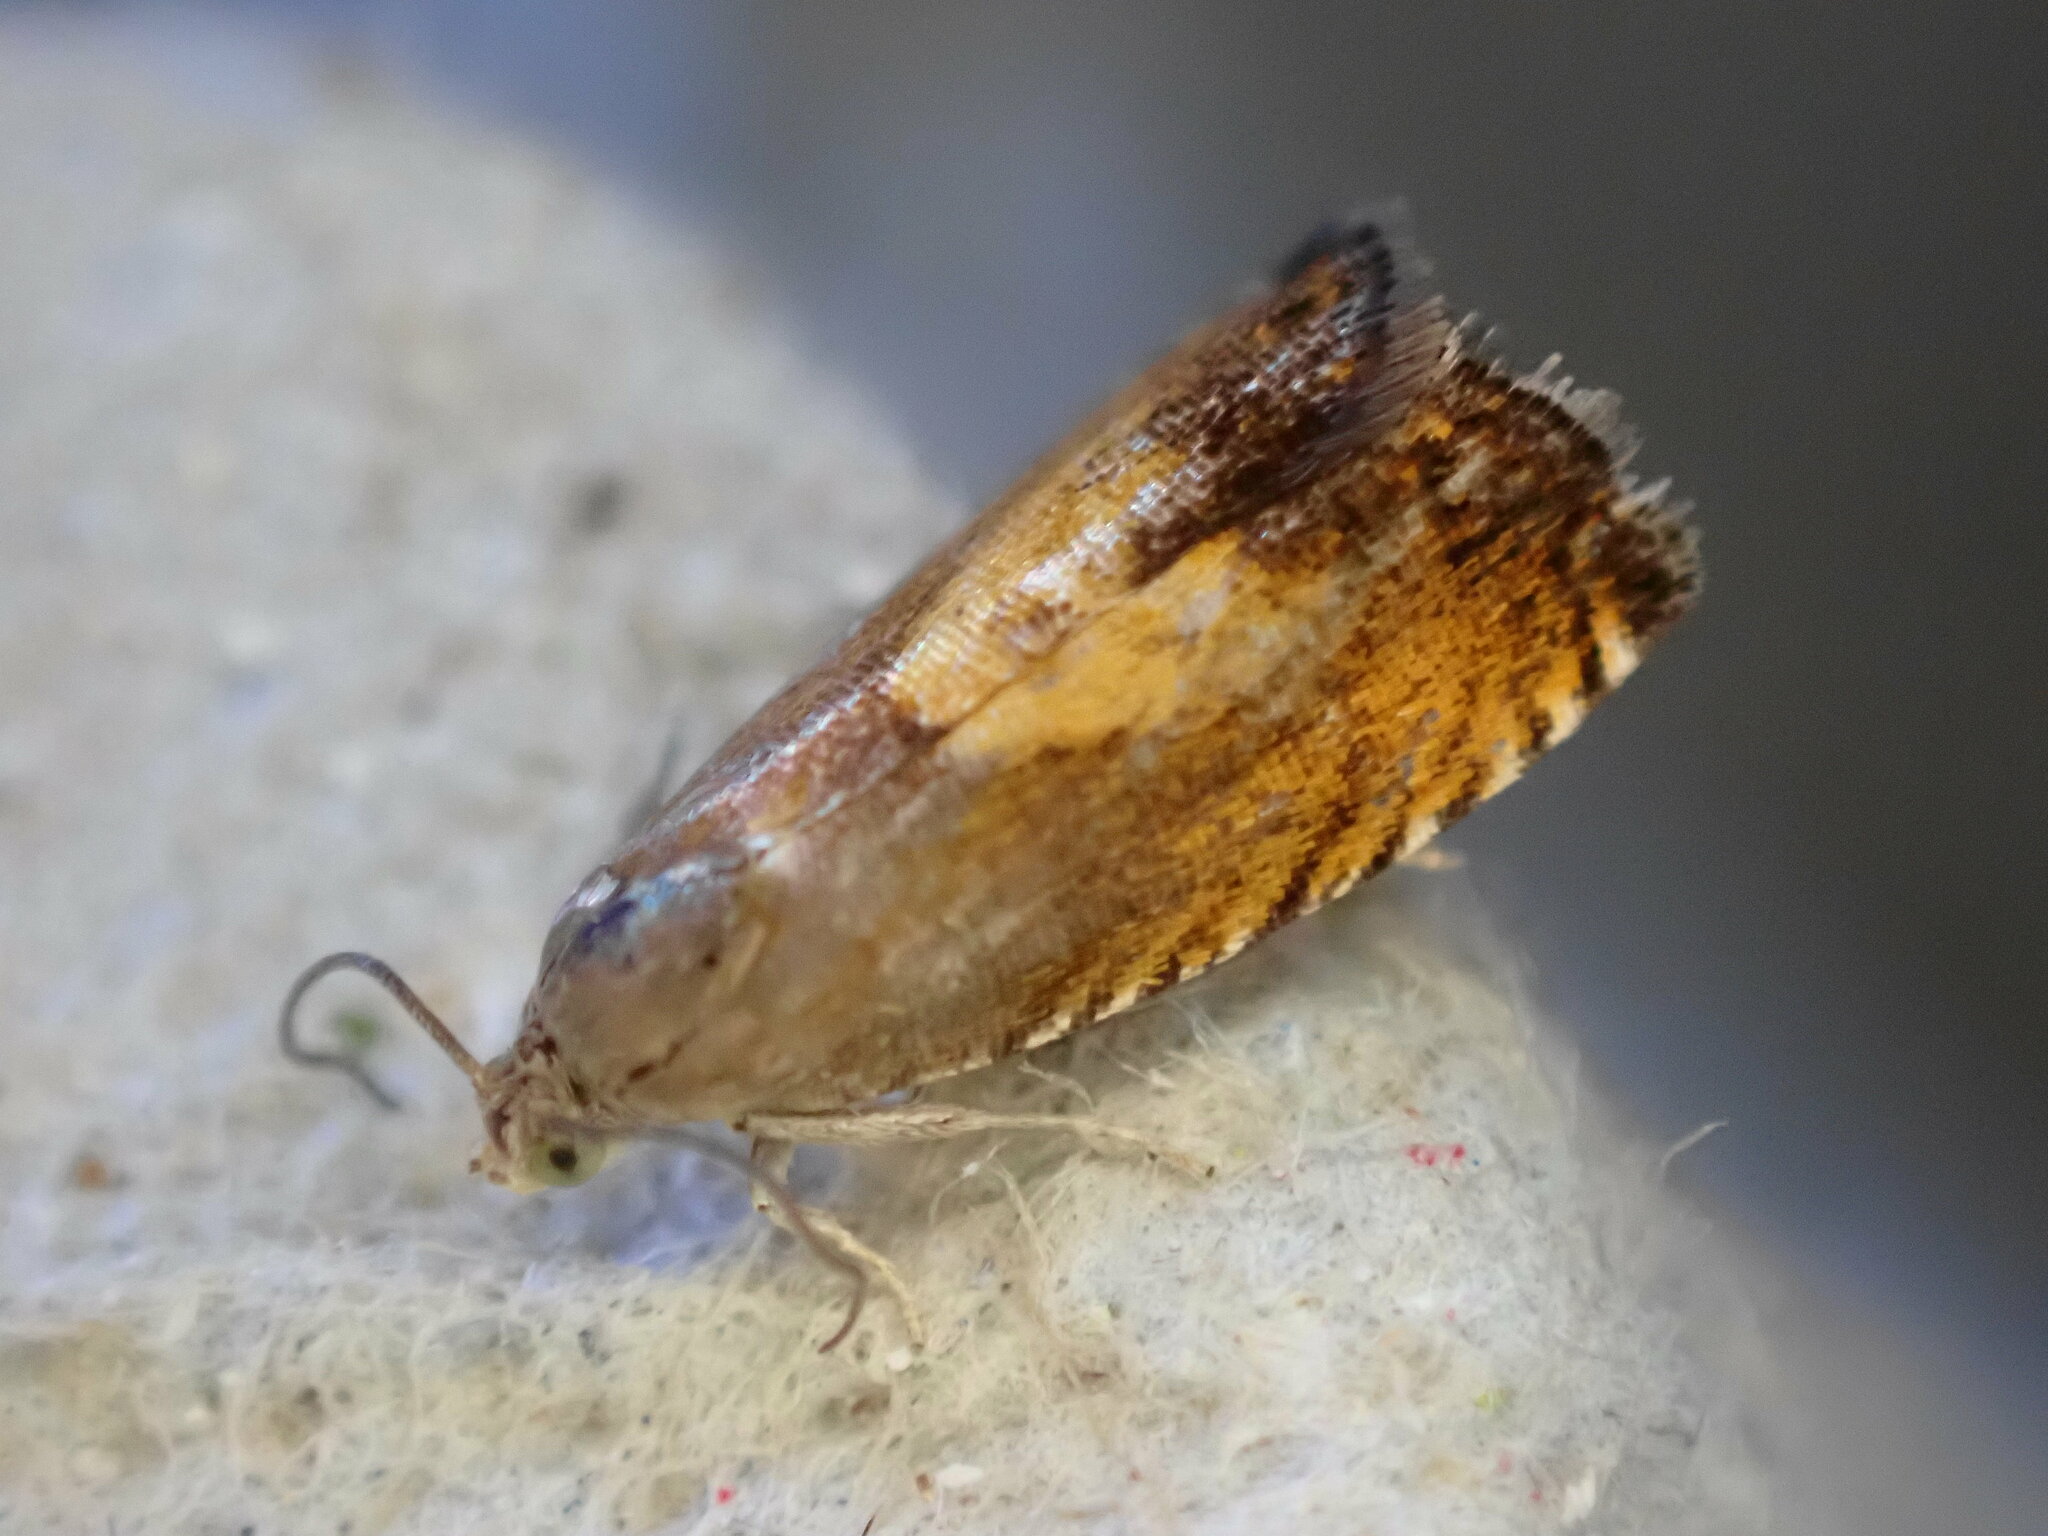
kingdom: Animalia
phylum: Arthropoda
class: Insecta
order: Lepidoptera
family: Tortricidae
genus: Dichrorampha
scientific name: Dichrorampha petiverella
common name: Common drill
